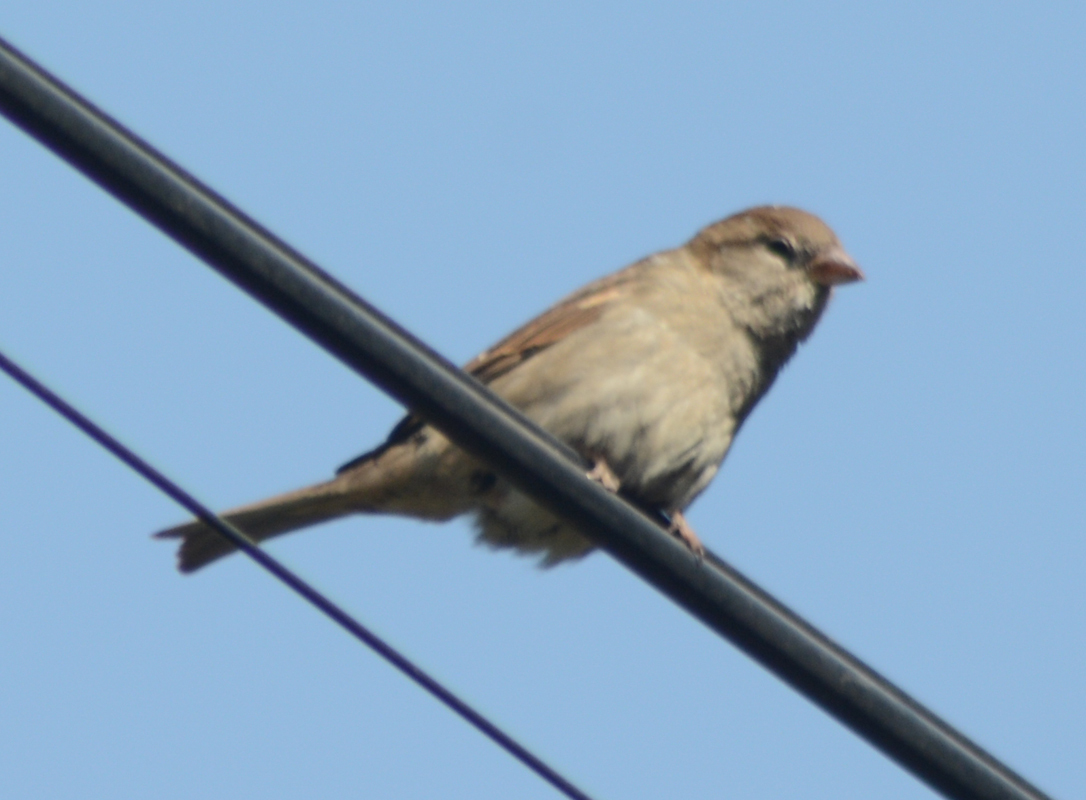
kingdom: Animalia
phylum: Chordata
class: Aves
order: Passeriformes
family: Passeridae
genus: Passer
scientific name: Passer domesticus
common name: House sparrow
